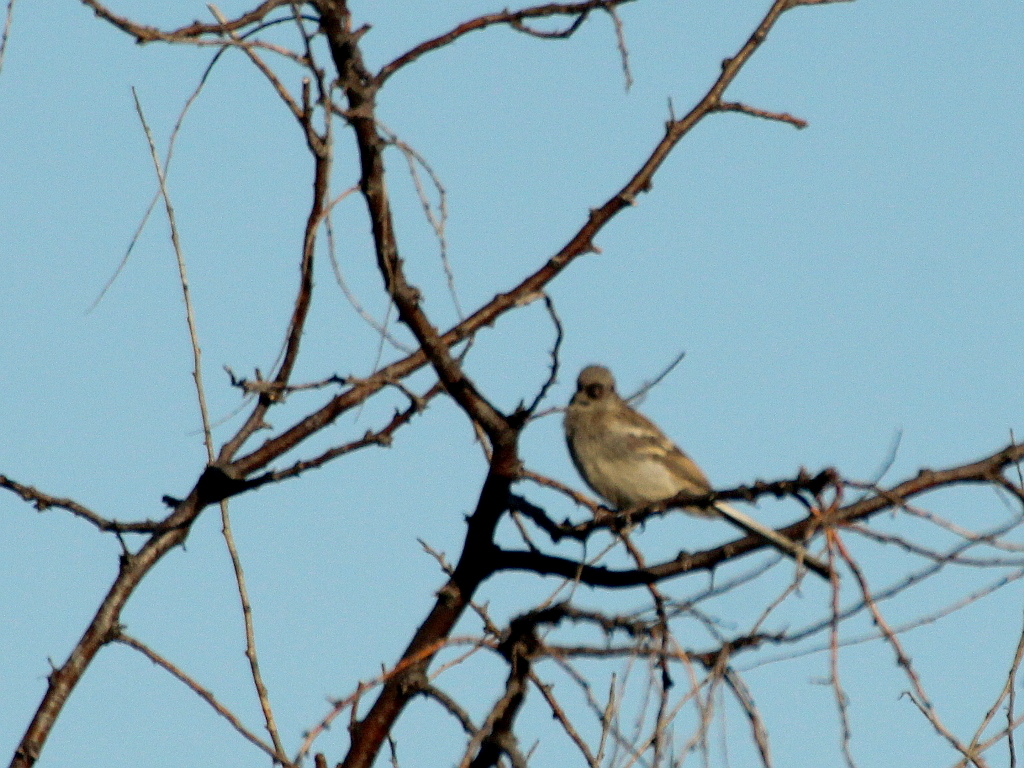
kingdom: Animalia
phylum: Chordata
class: Aves
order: Passeriformes
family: Fringillidae
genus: Carpodacus
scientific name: Carpodacus sibiricus
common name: Long-tailed rosefinch
